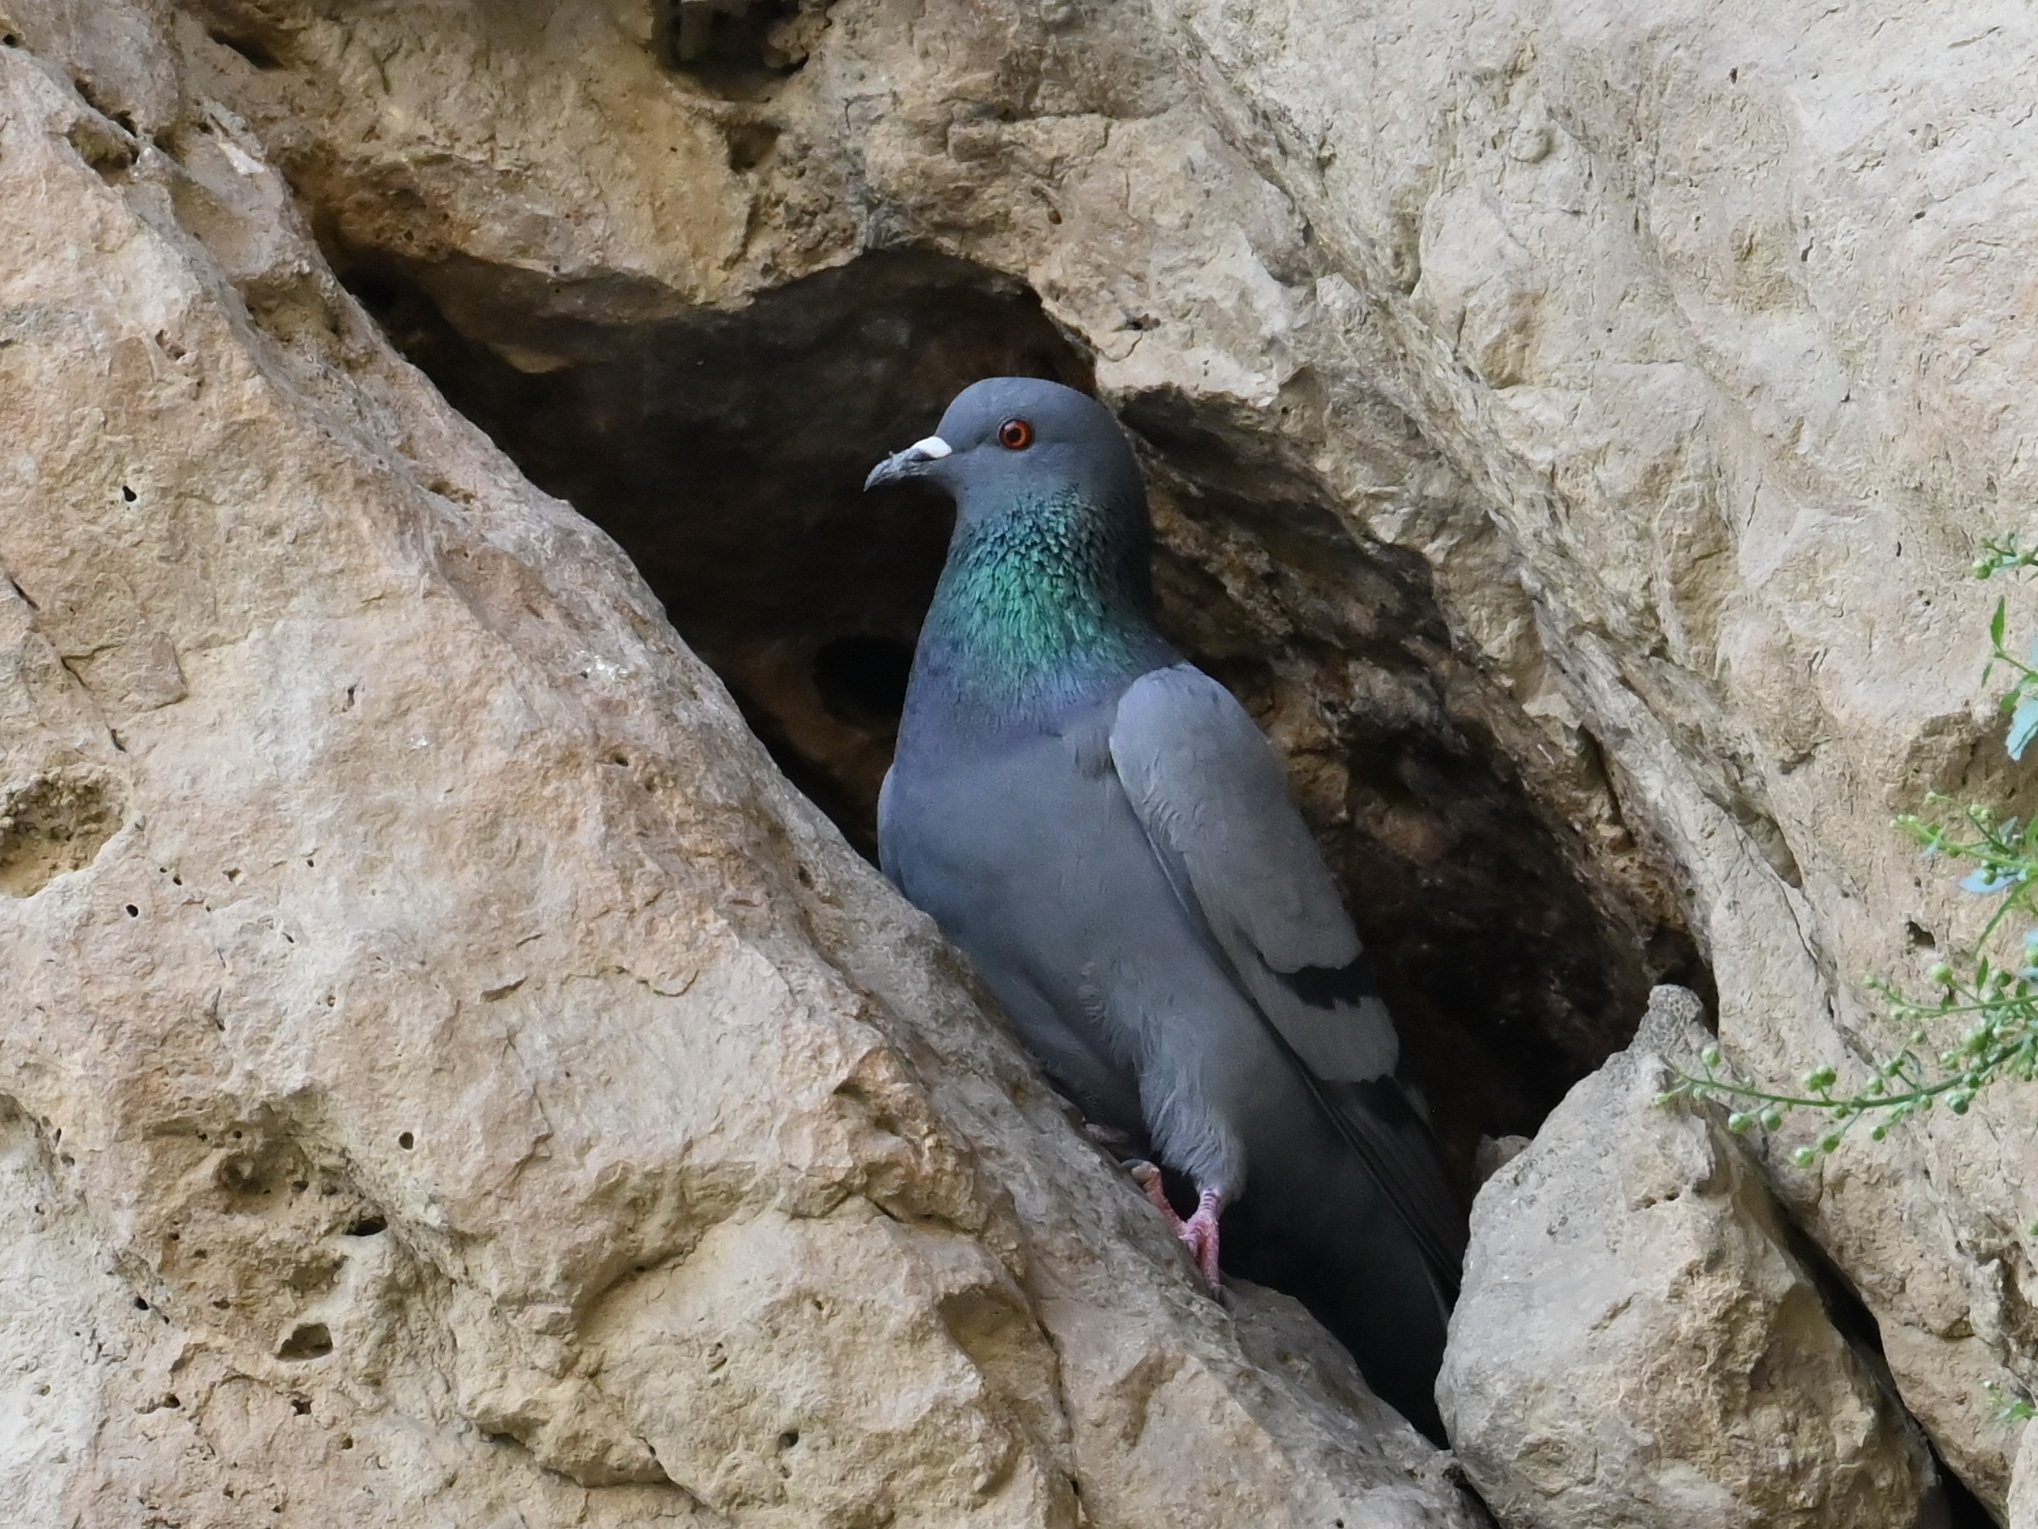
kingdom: Animalia
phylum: Chordata
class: Aves
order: Columbiformes
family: Columbidae
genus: Columba
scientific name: Columba livia
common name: Rock pigeon
